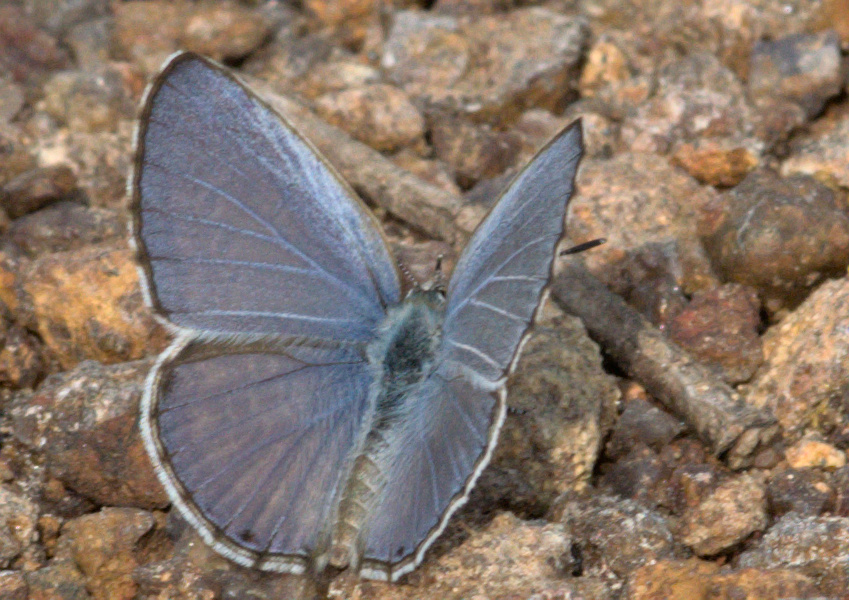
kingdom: Animalia
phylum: Arthropoda
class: Insecta
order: Lepidoptera
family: Lycaenidae
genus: Chilades
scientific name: Chilades laius
